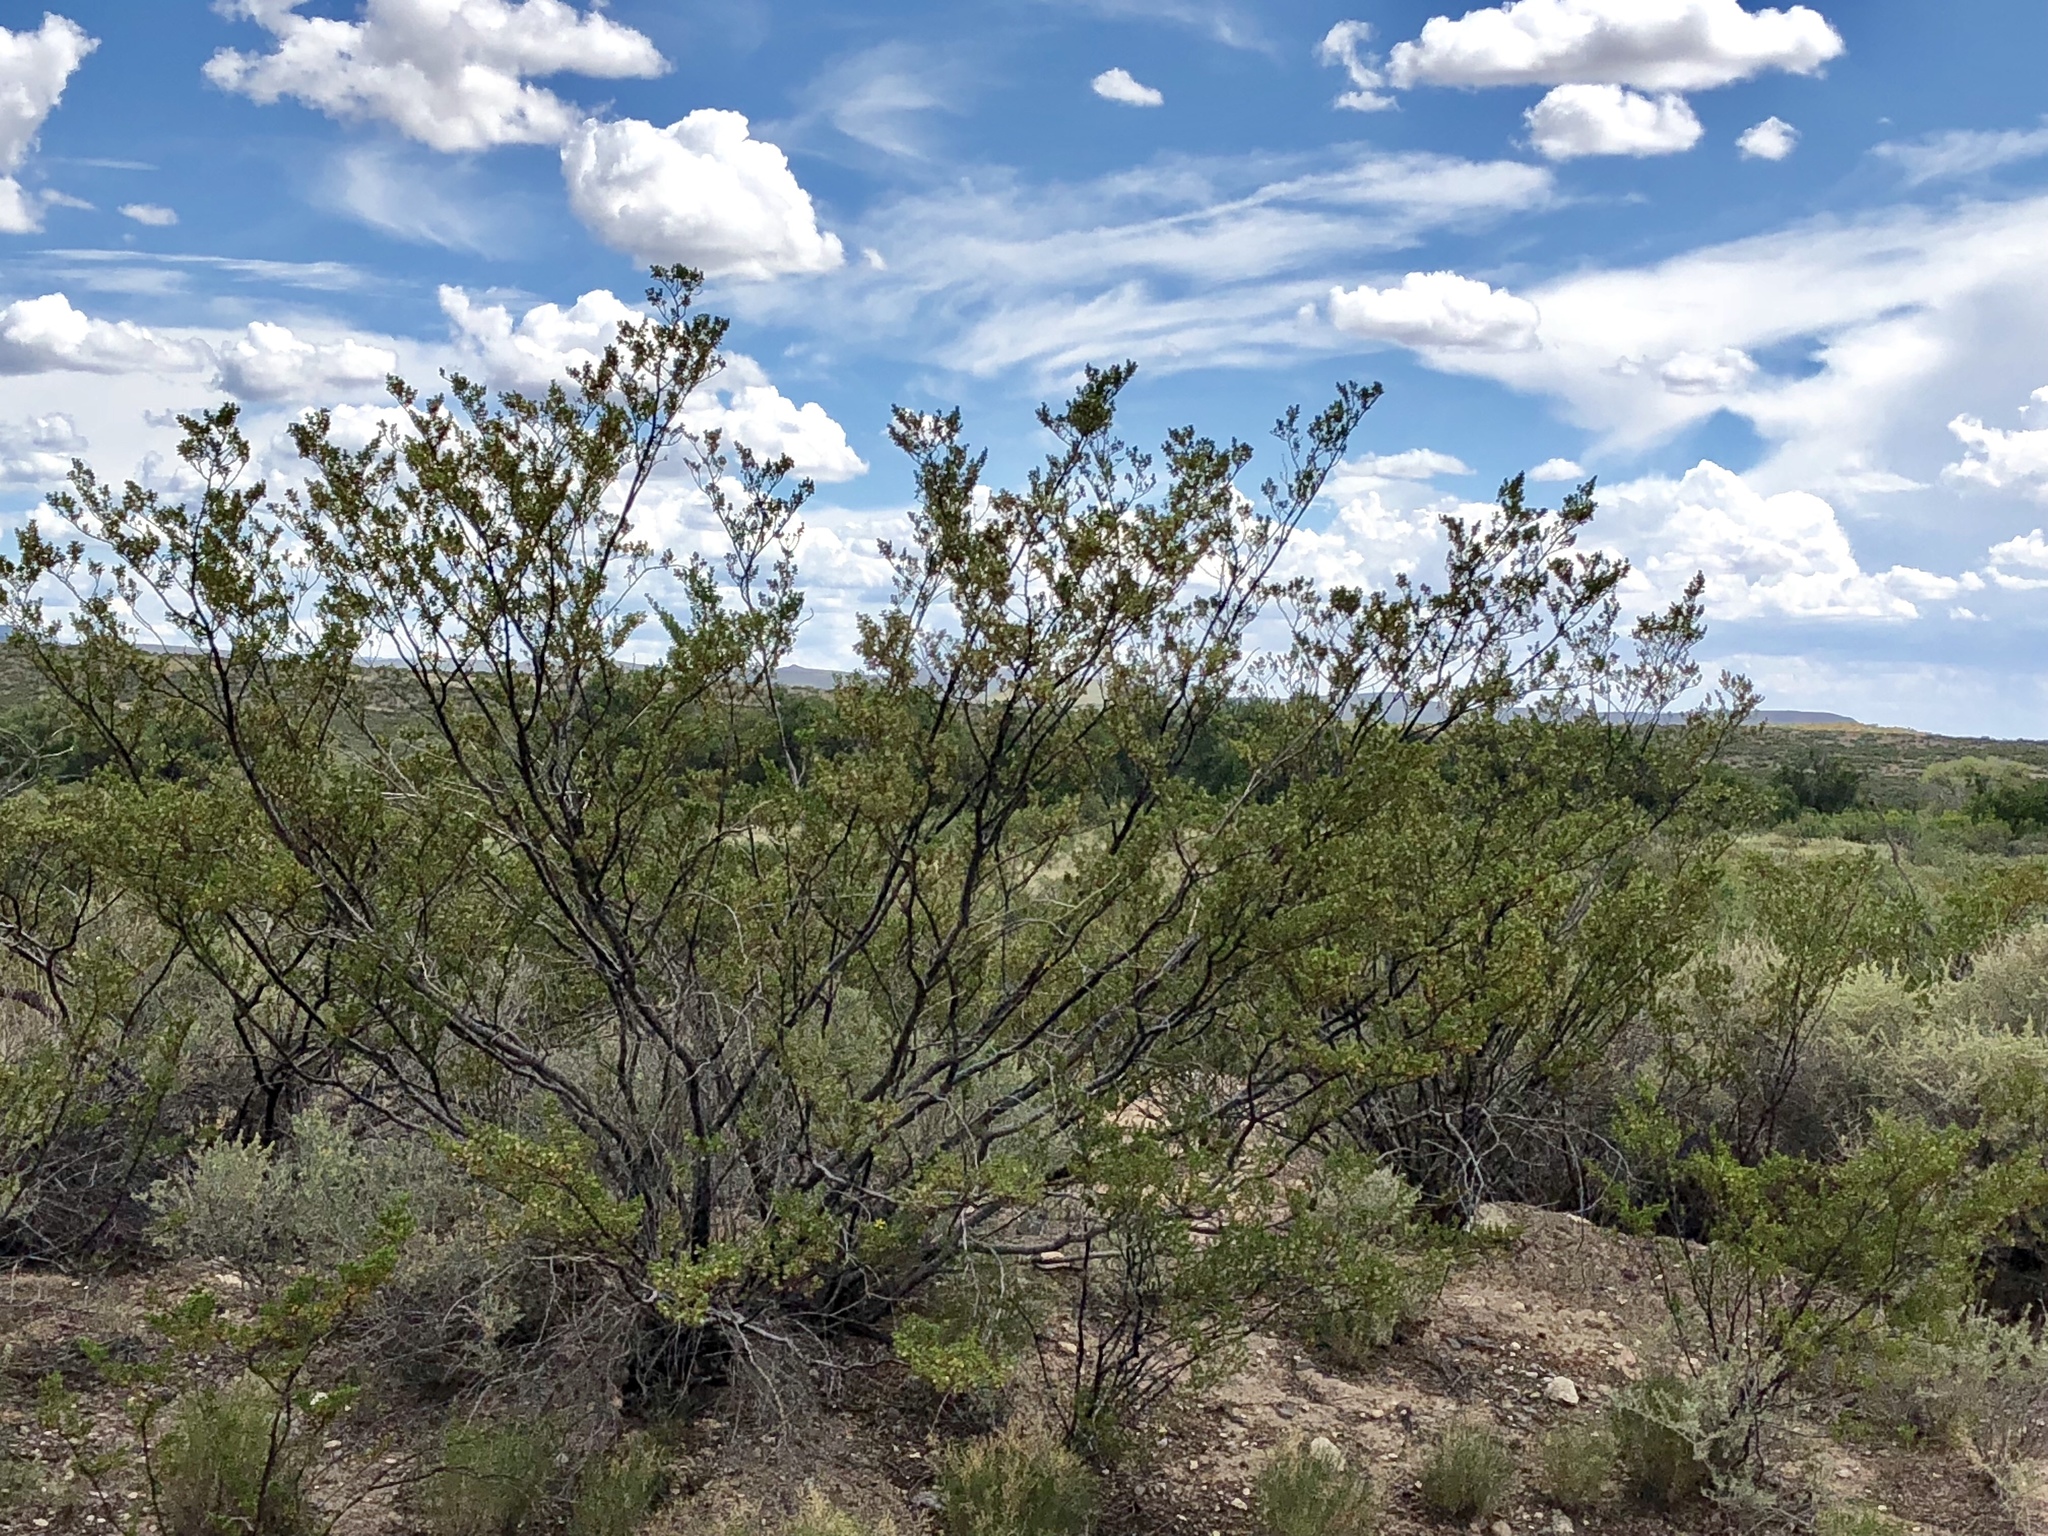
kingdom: Plantae
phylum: Tracheophyta
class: Magnoliopsida
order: Zygophyllales
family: Zygophyllaceae
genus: Larrea
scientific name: Larrea tridentata
